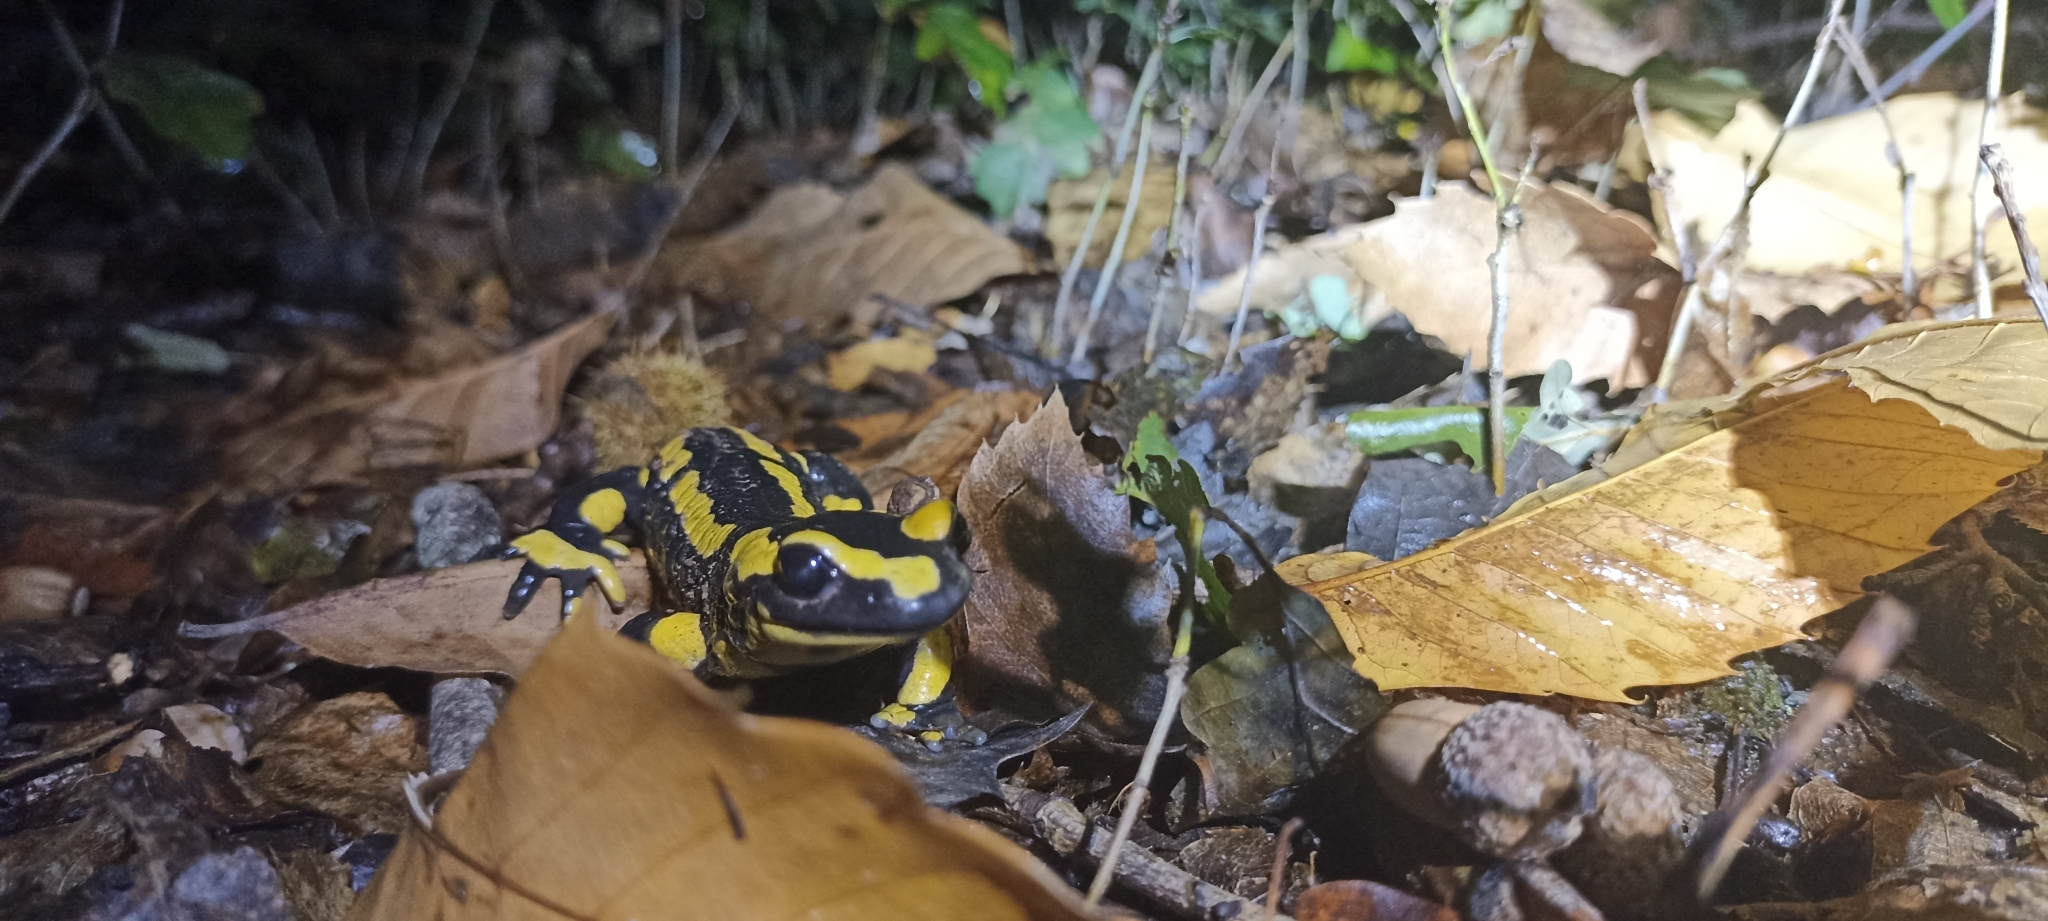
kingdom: Animalia
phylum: Chordata
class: Amphibia
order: Caudata
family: Salamandridae
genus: Salamandra
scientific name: Salamandra salamandra
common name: Fire salamander
